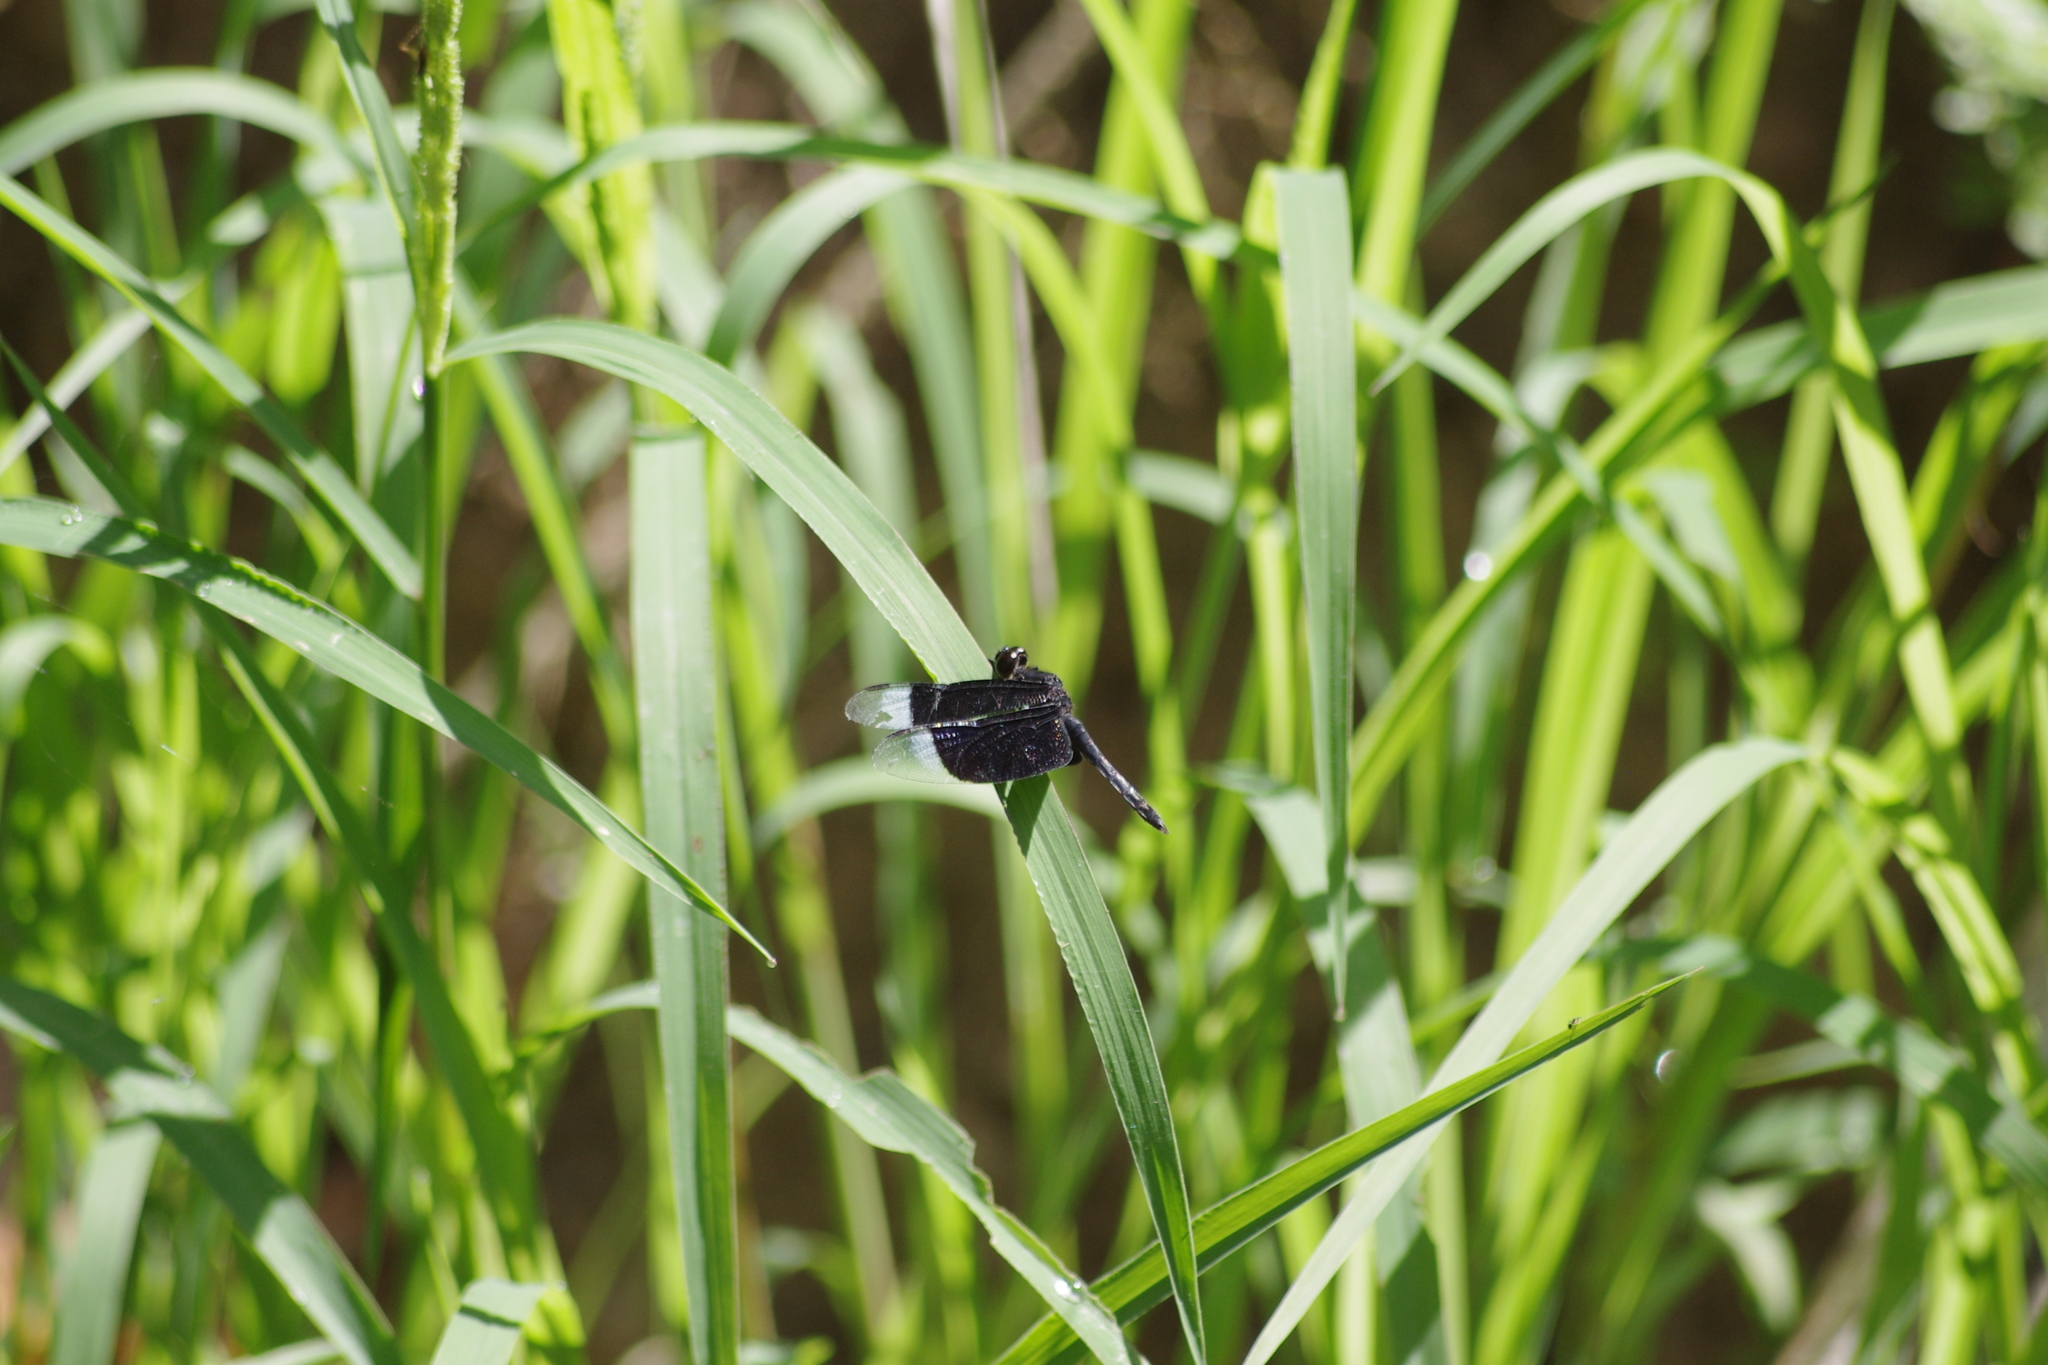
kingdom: Animalia
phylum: Arthropoda
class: Insecta
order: Odonata
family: Libellulidae
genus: Neurothemis
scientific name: Neurothemis decora
